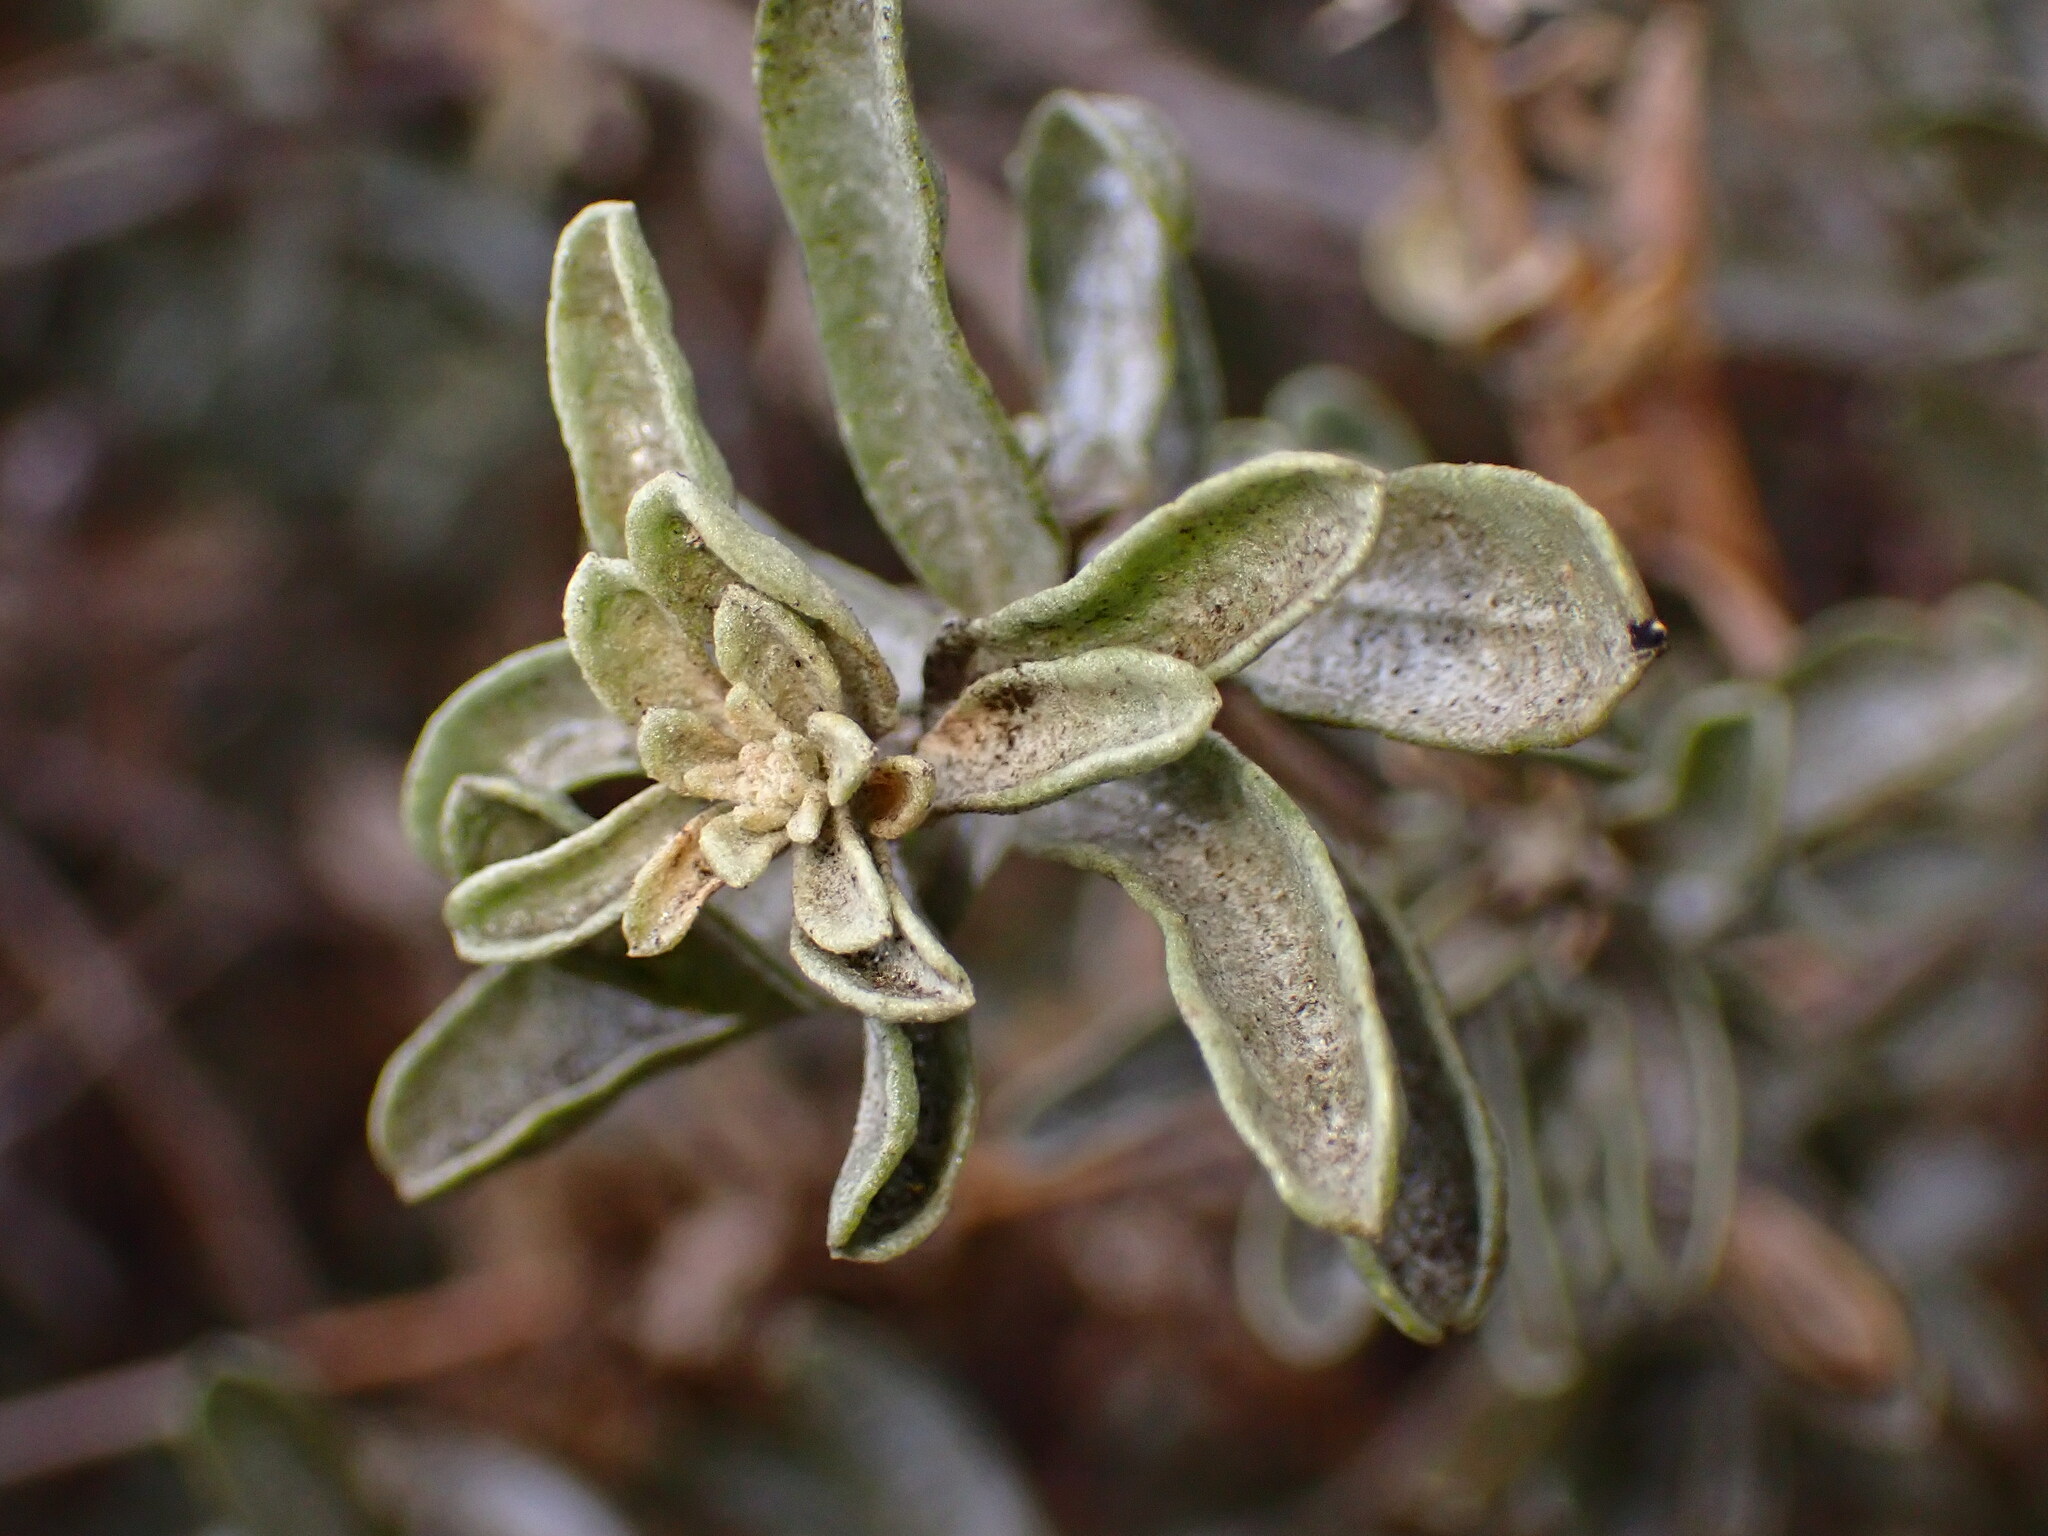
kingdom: Plantae
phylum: Tracheophyta
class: Magnoliopsida
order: Caryophyllales
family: Amaranthaceae
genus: Atriplex
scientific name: Atriplex canescens
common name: Four-wing saltbush
